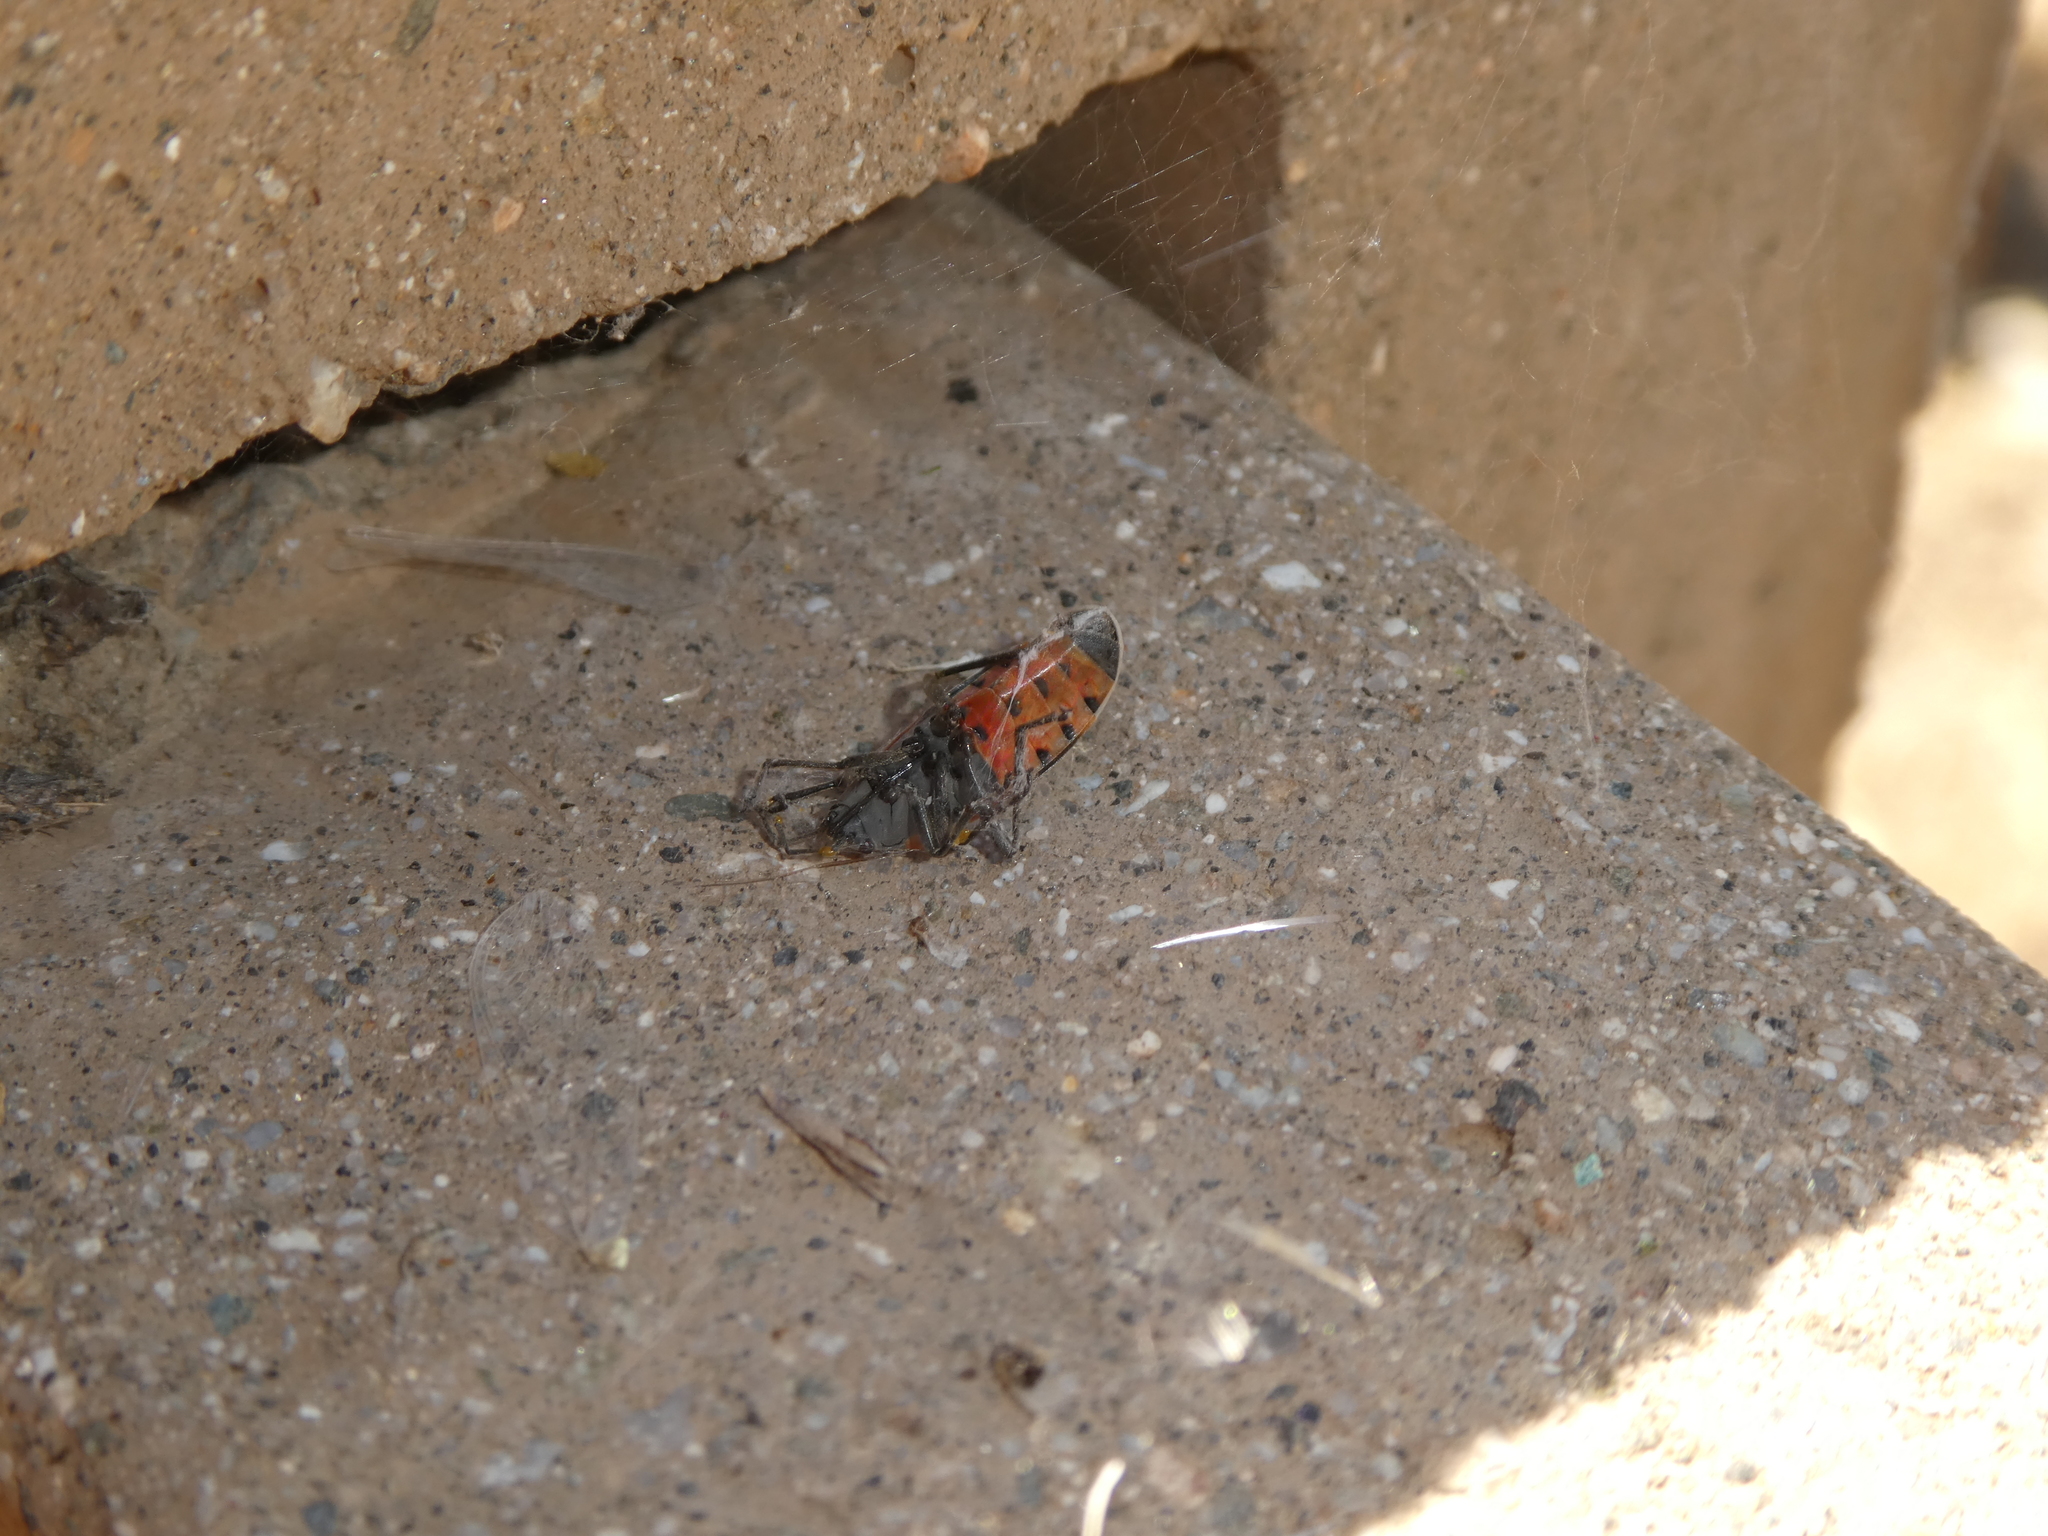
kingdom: Animalia
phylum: Arthropoda
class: Insecta
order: Hemiptera
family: Lygaeidae
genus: Lygaeus
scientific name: Lygaeus kalmii
